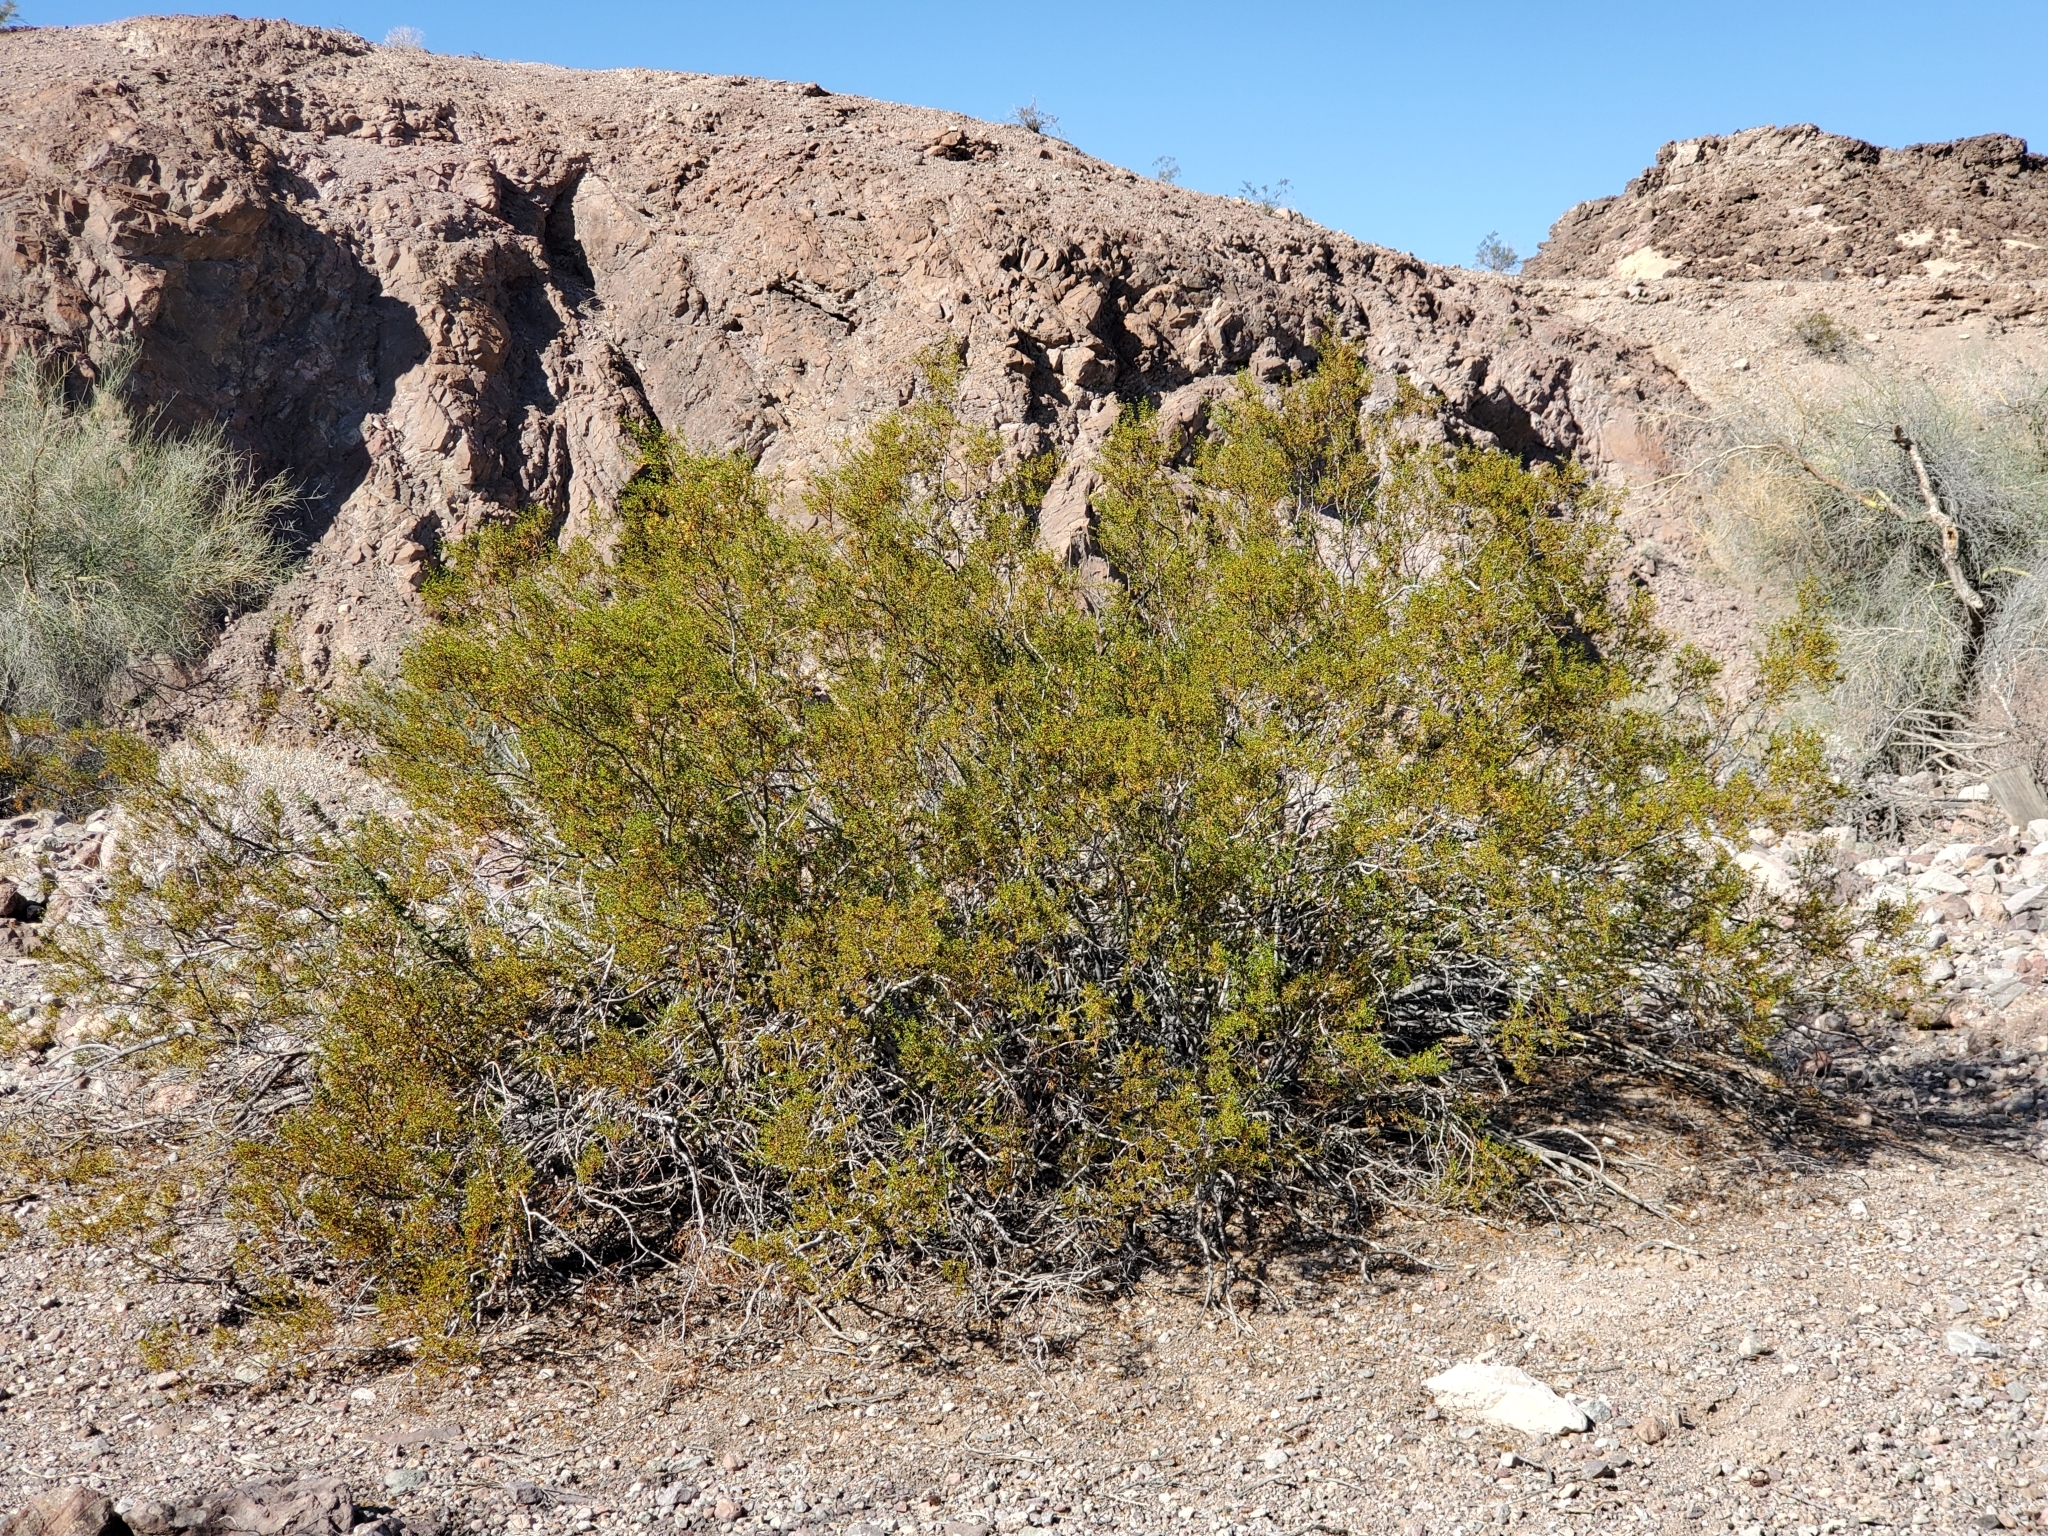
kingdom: Plantae
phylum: Tracheophyta
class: Magnoliopsida
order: Zygophyllales
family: Zygophyllaceae
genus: Larrea
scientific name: Larrea tridentata
